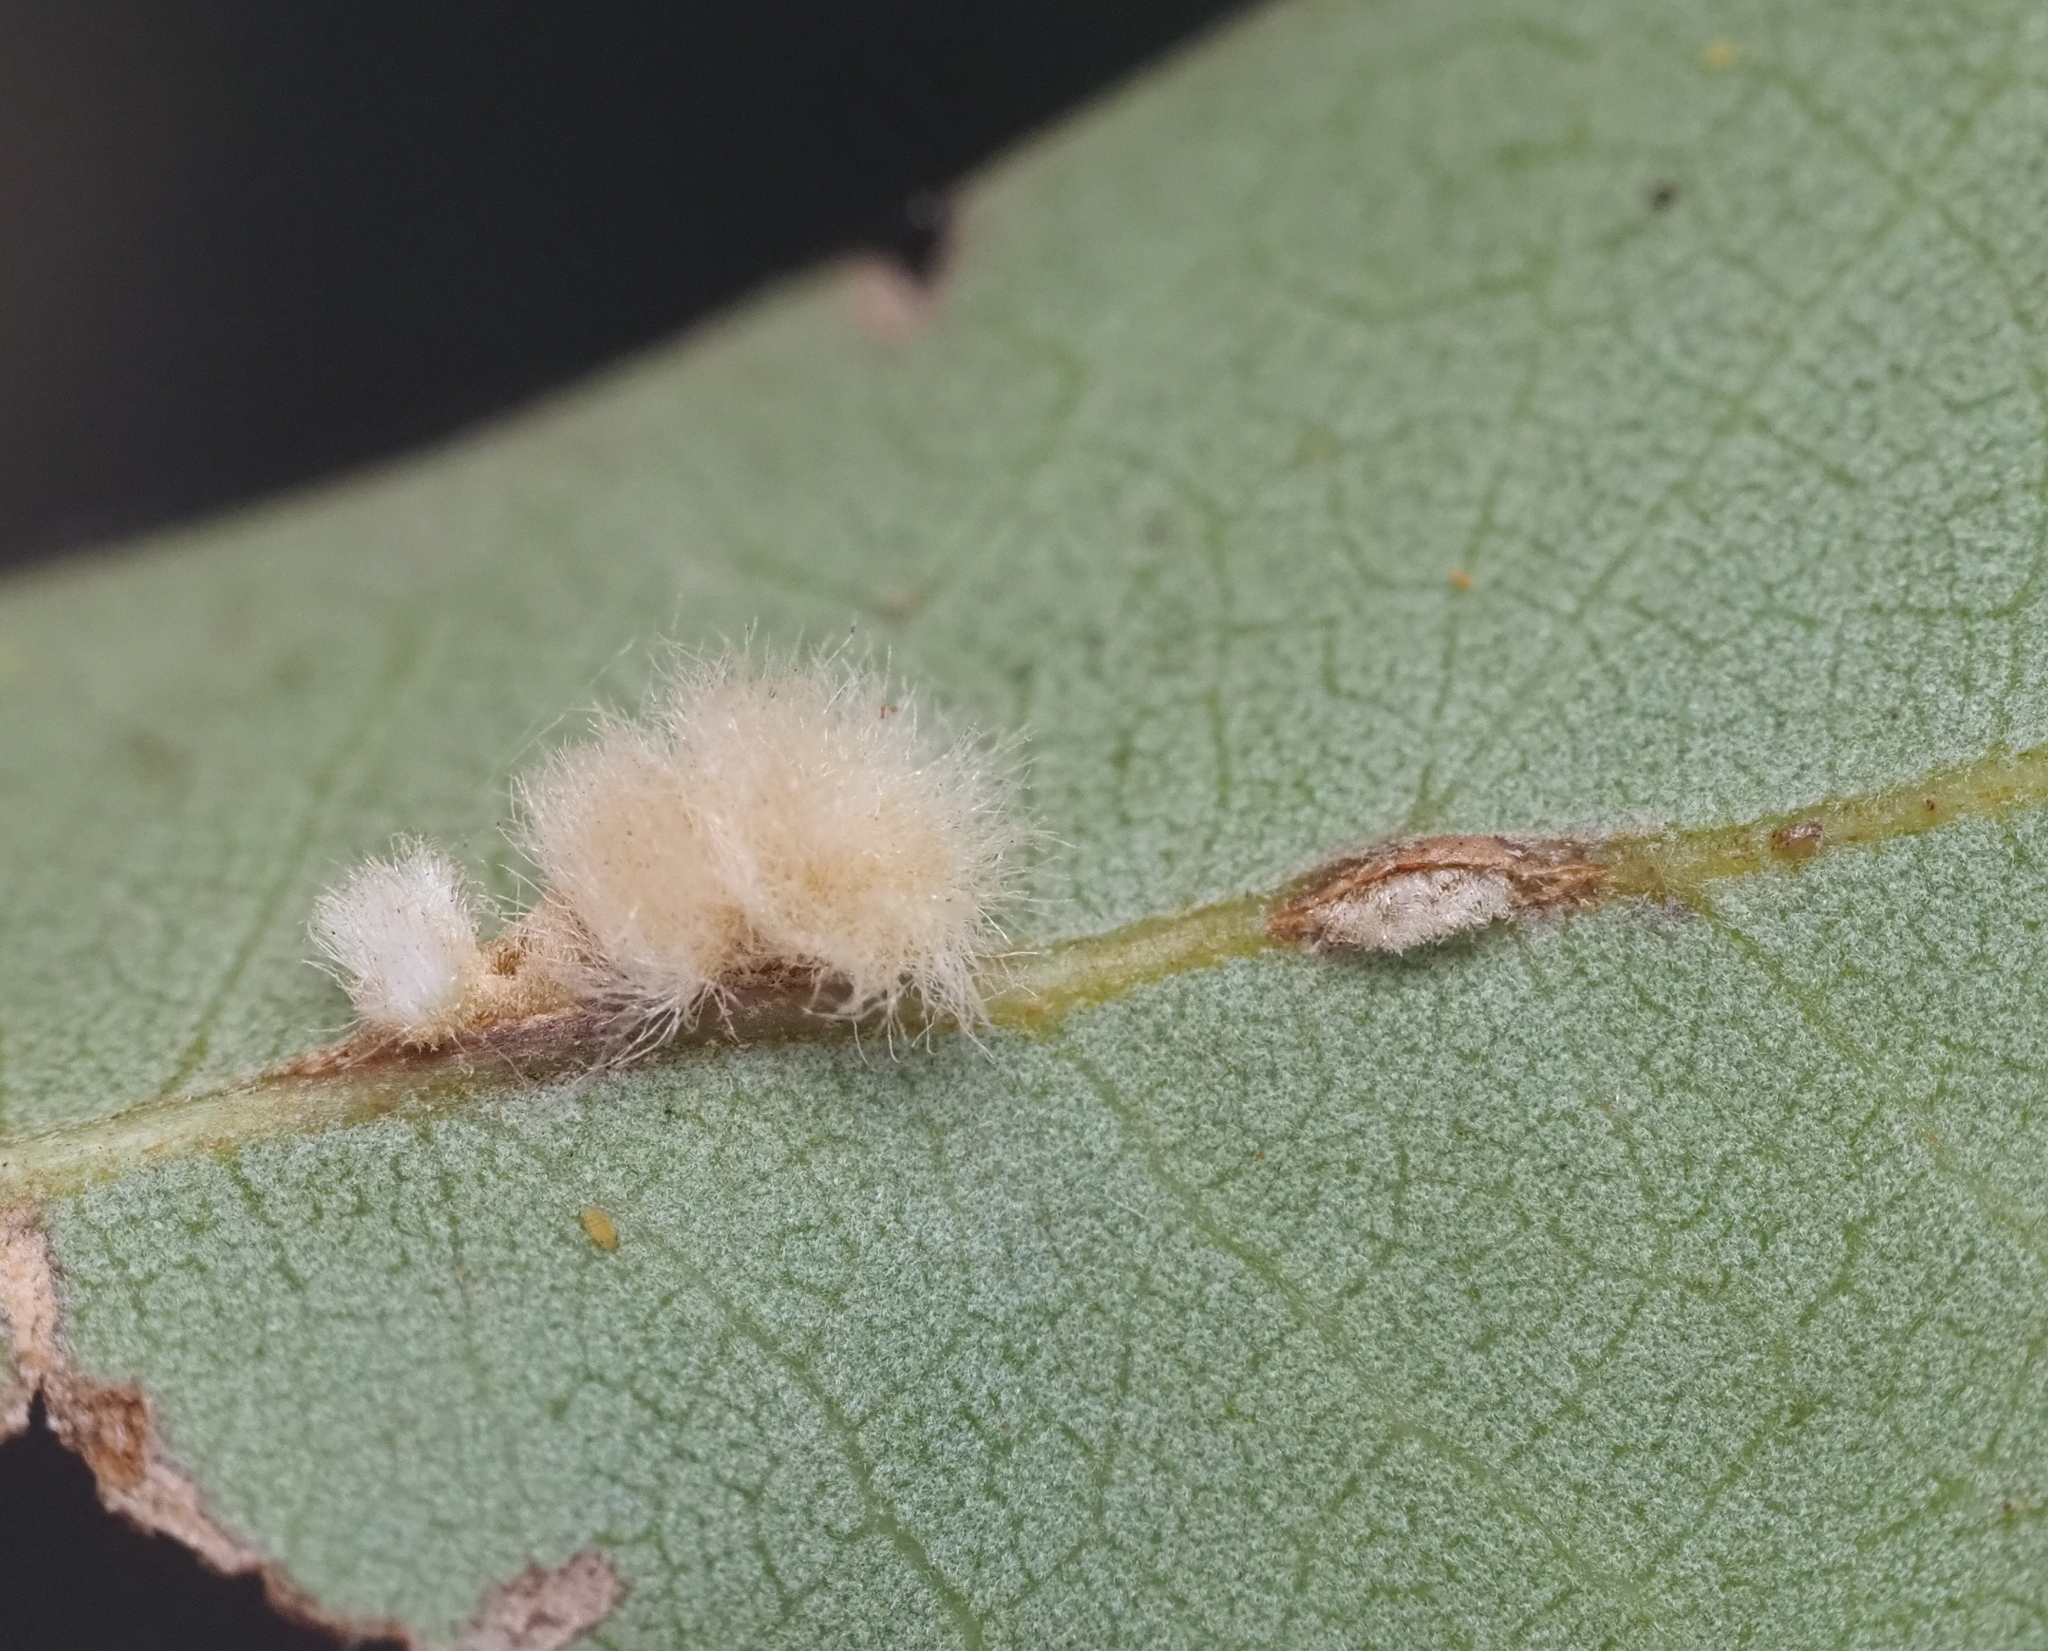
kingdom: Animalia
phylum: Arthropoda
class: Insecta
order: Hymenoptera
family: Cynipidae
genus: Andricus
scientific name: Andricus Druon quercuslanigerum
